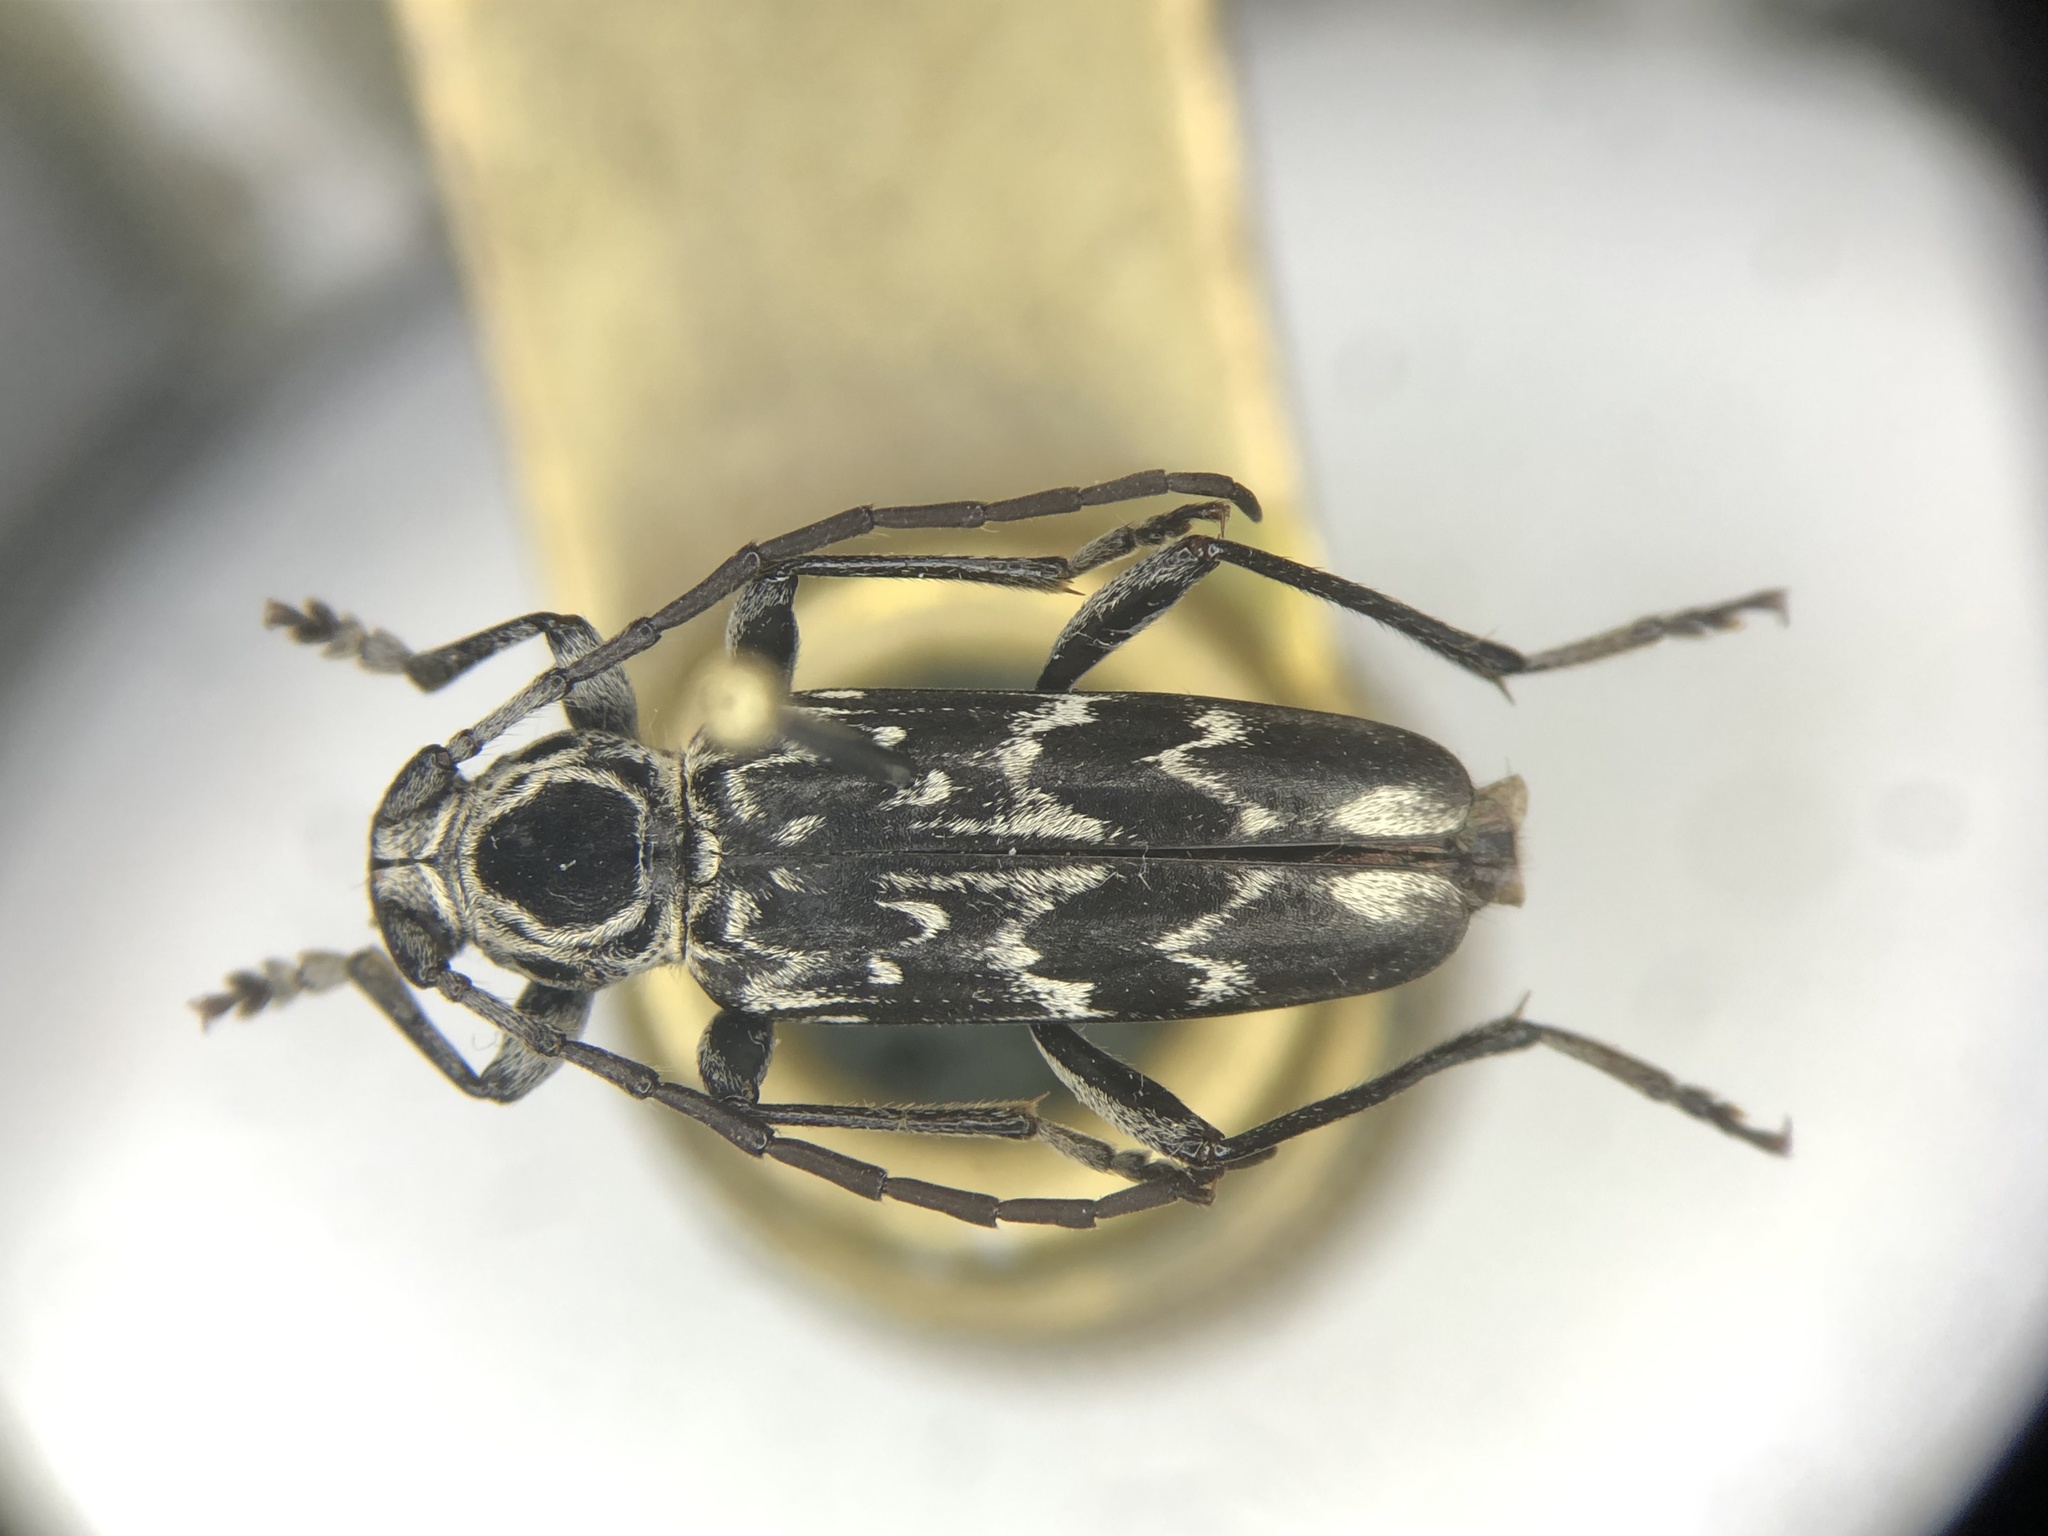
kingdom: Animalia
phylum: Arthropoda
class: Insecta
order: Coleoptera
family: Cerambycidae
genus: Sarosesthes
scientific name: Sarosesthes fulminans
